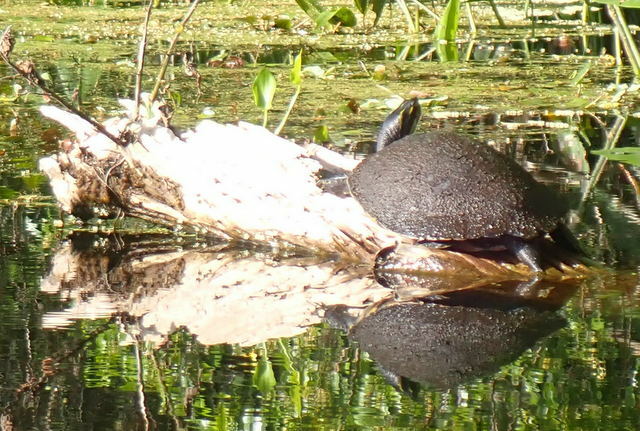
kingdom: Animalia
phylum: Chordata
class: Testudines
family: Emydidae
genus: Pseudemys
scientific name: Pseudemys
